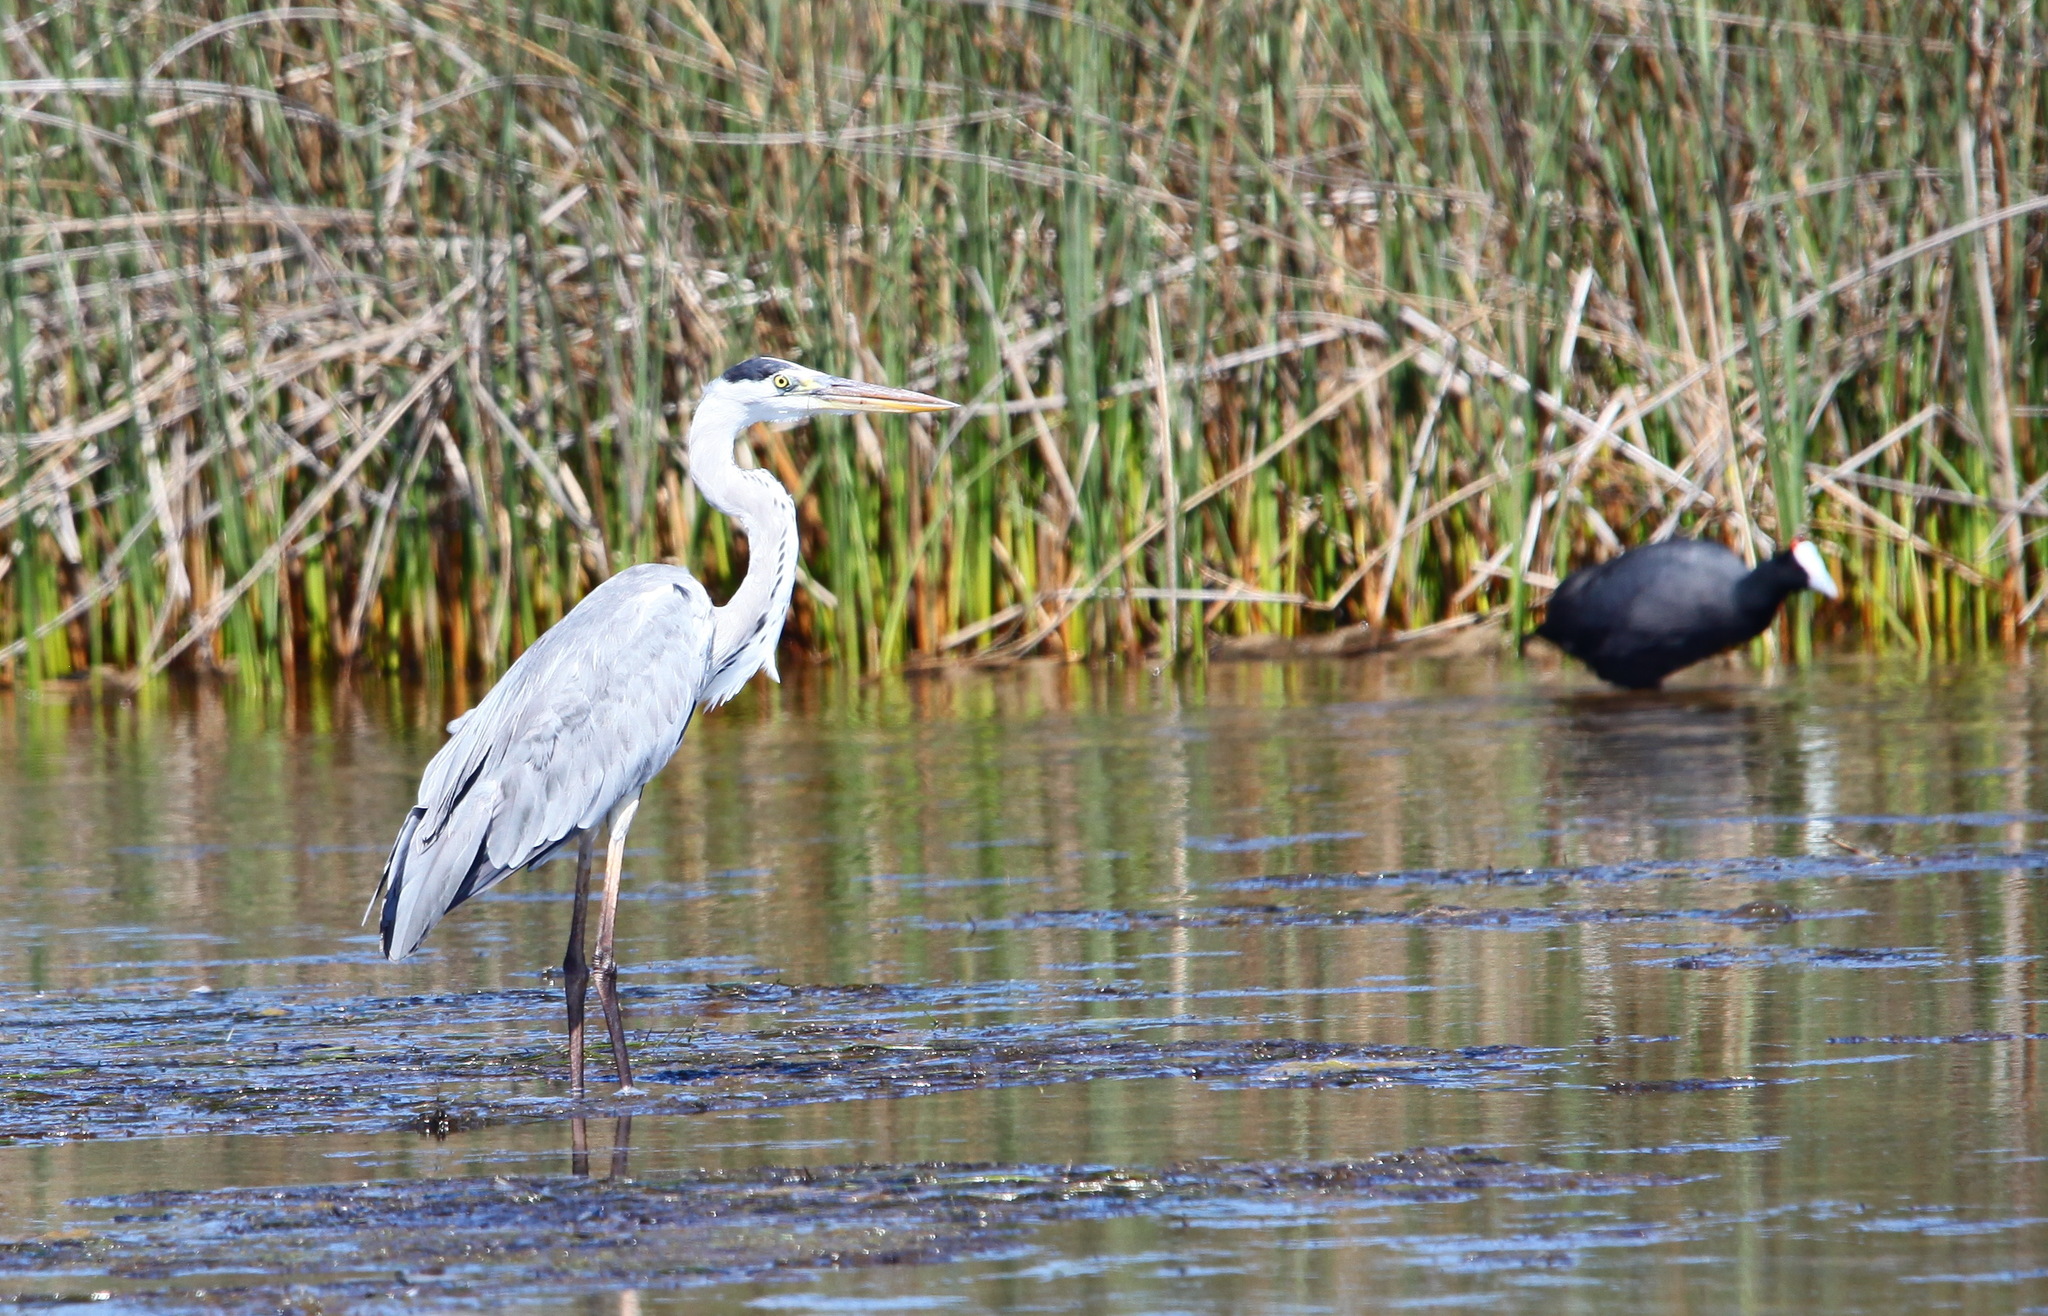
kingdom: Animalia
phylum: Chordata
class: Aves
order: Pelecaniformes
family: Ardeidae
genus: Ardea
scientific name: Ardea cinerea
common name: Grey heron
